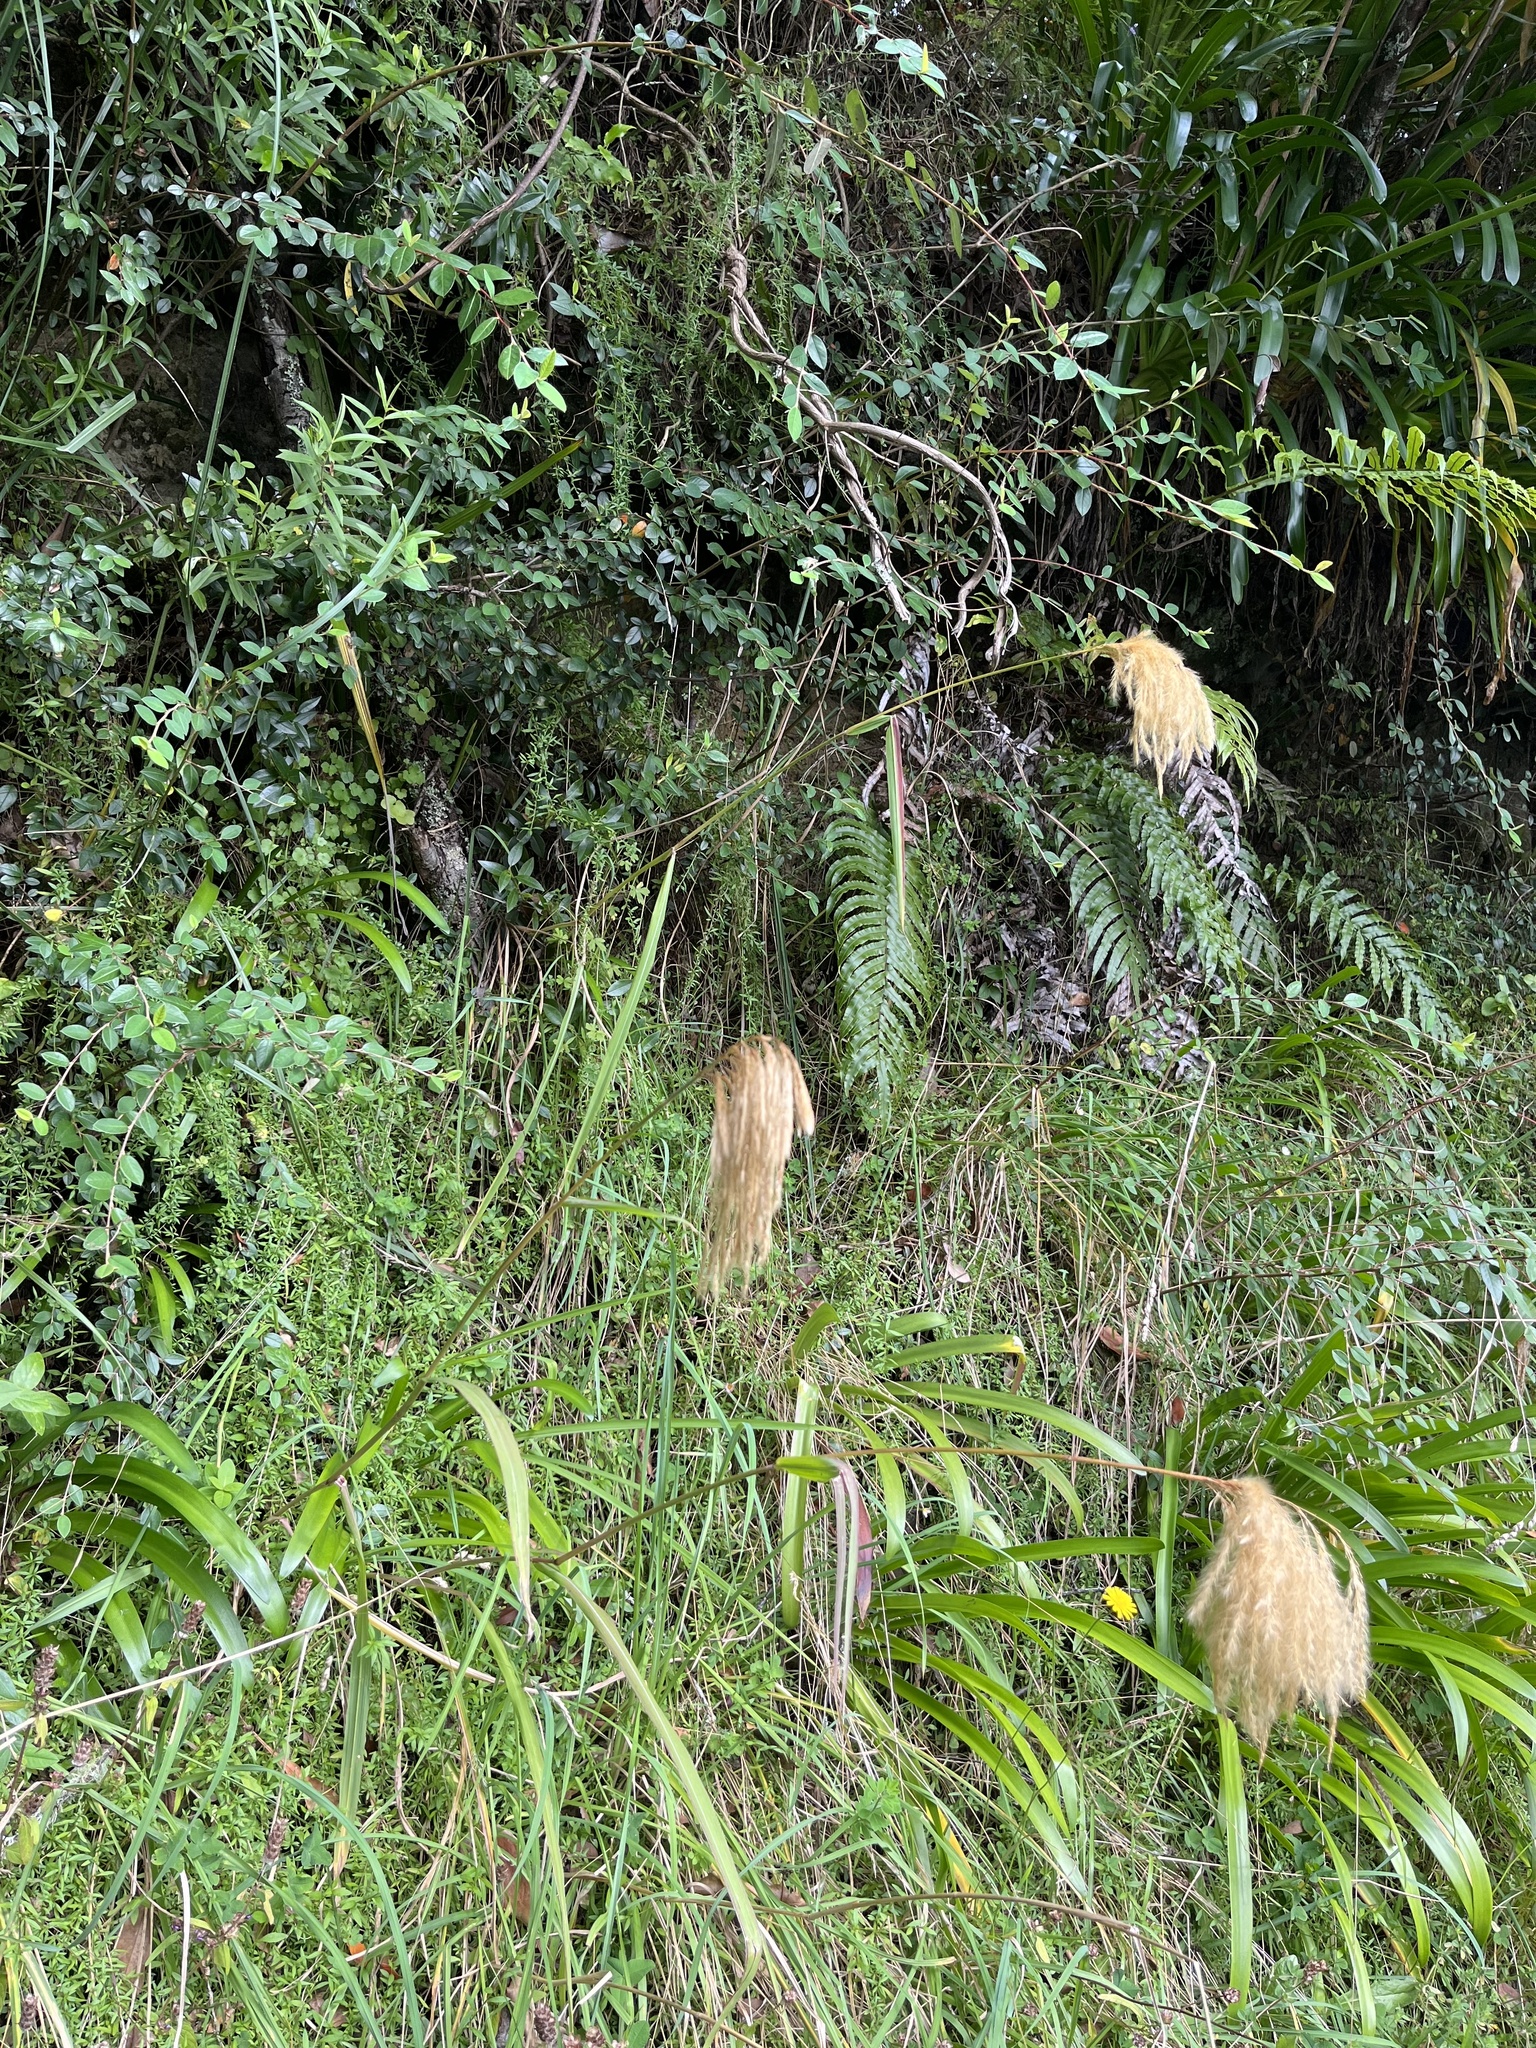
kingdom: Plantae
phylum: Tracheophyta
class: Liliopsida
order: Poales
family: Poaceae
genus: Miscanthus
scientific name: Miscanthus nepalensis
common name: Nepal silver grass
